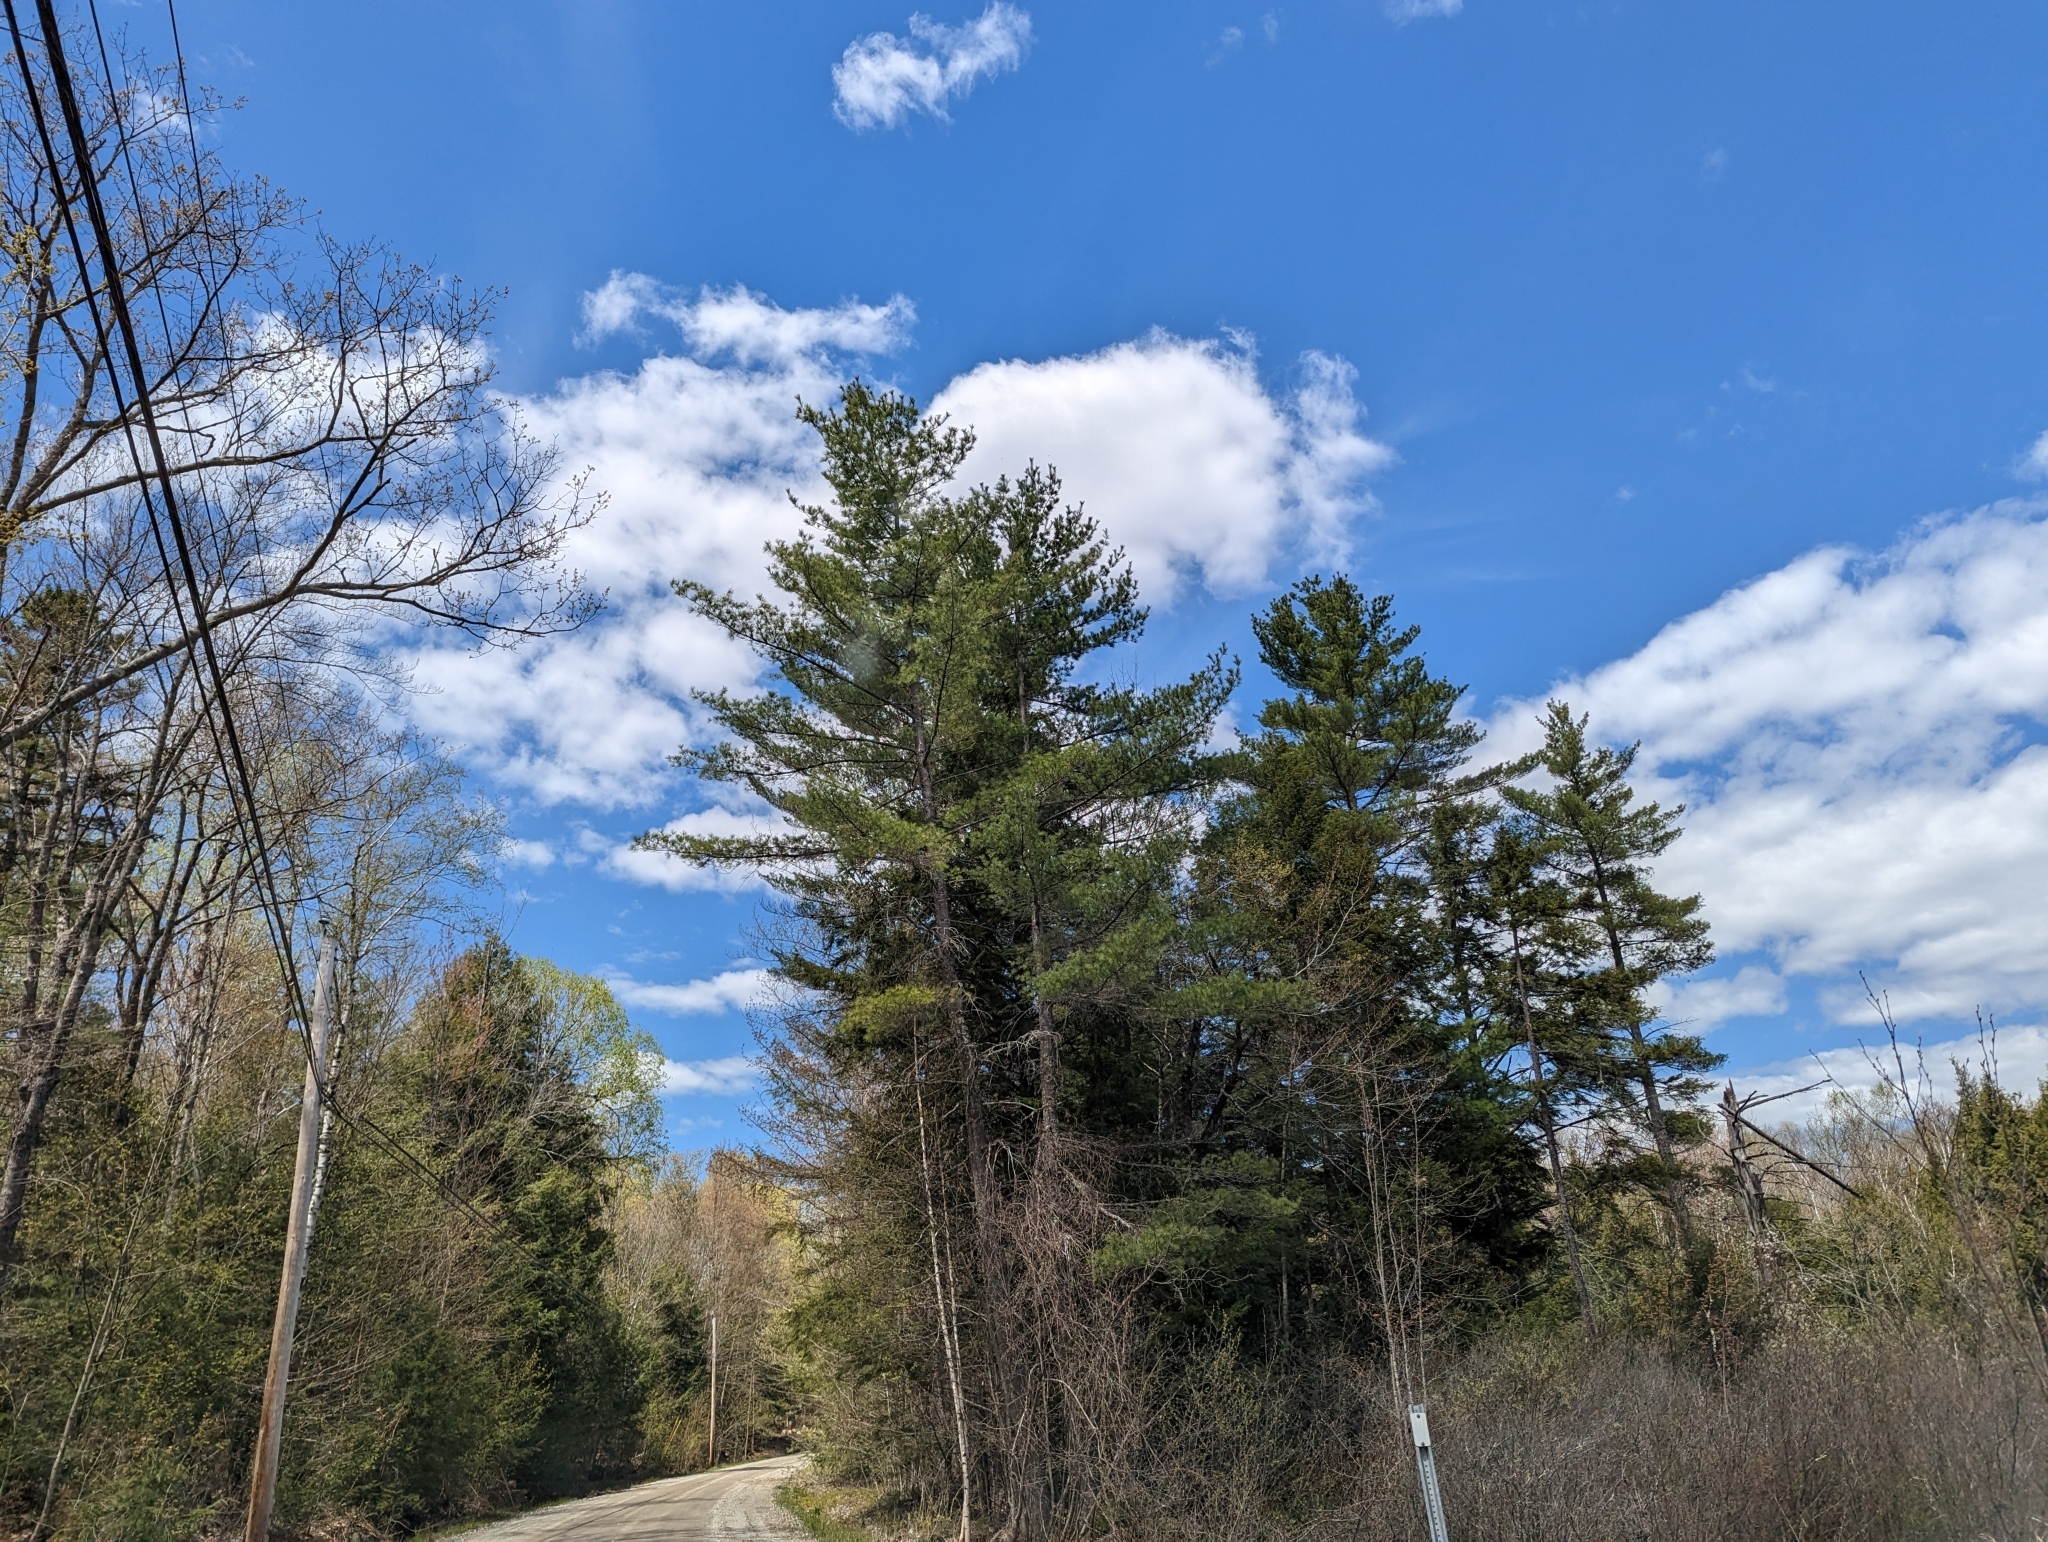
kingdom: Plantae
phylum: Tracheophyta
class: Pinopsida
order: Pinales
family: Pinaceae
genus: Pinus
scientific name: Pinus strobus
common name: Weymouth pine
